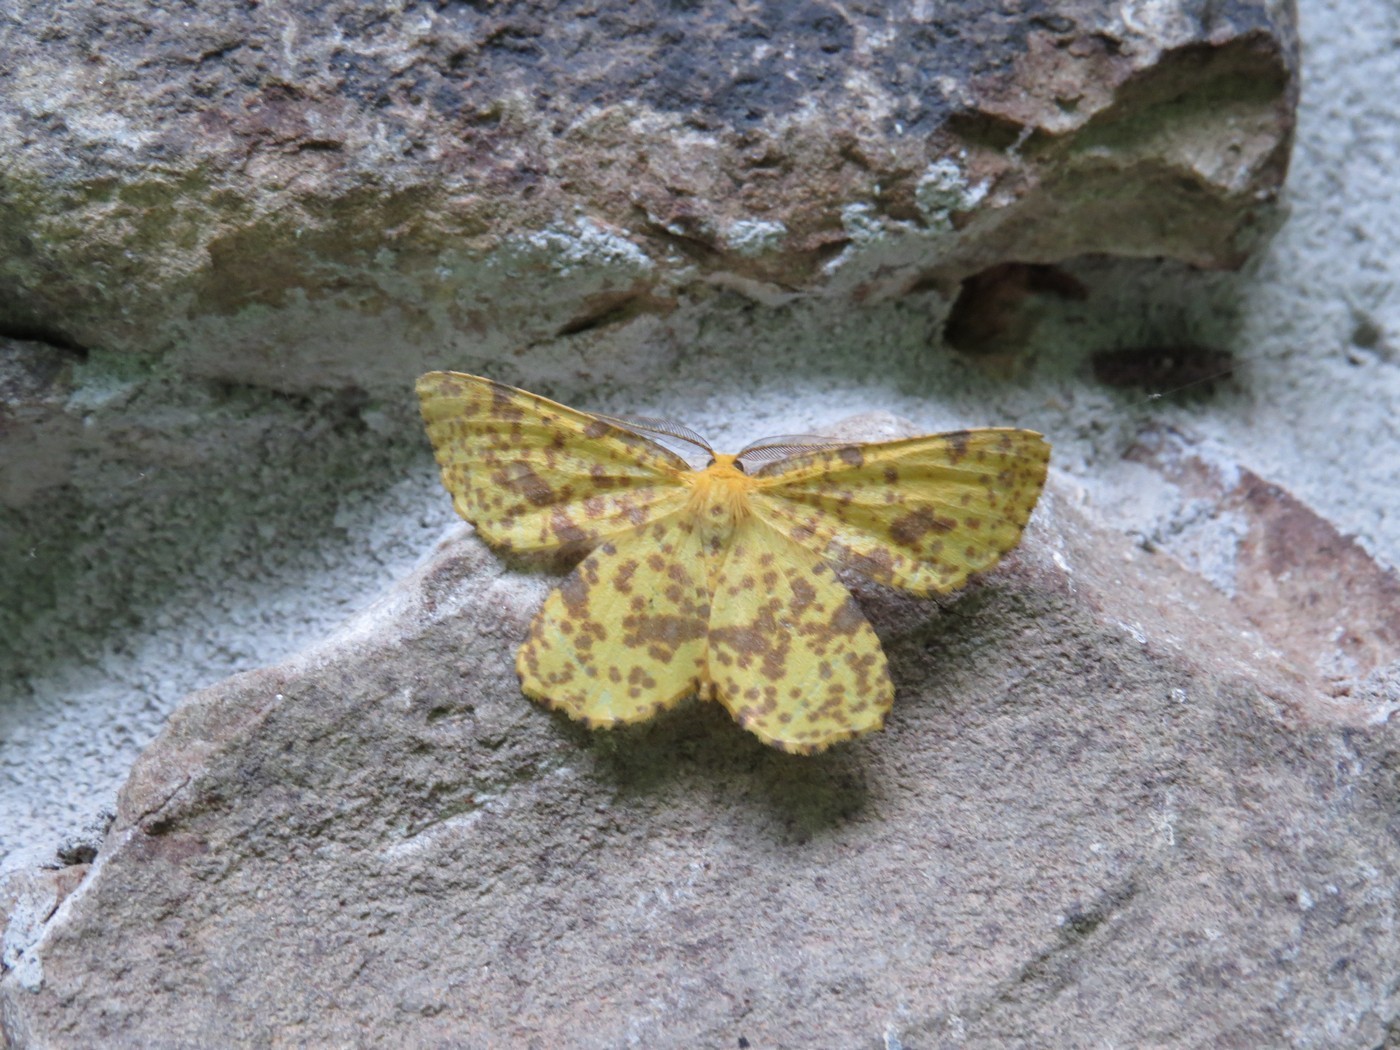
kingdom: Animalia
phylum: Arthropoda
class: Insecta
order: Lepidoptera
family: Geometridae
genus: Xanthotype
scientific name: Xanthotype
